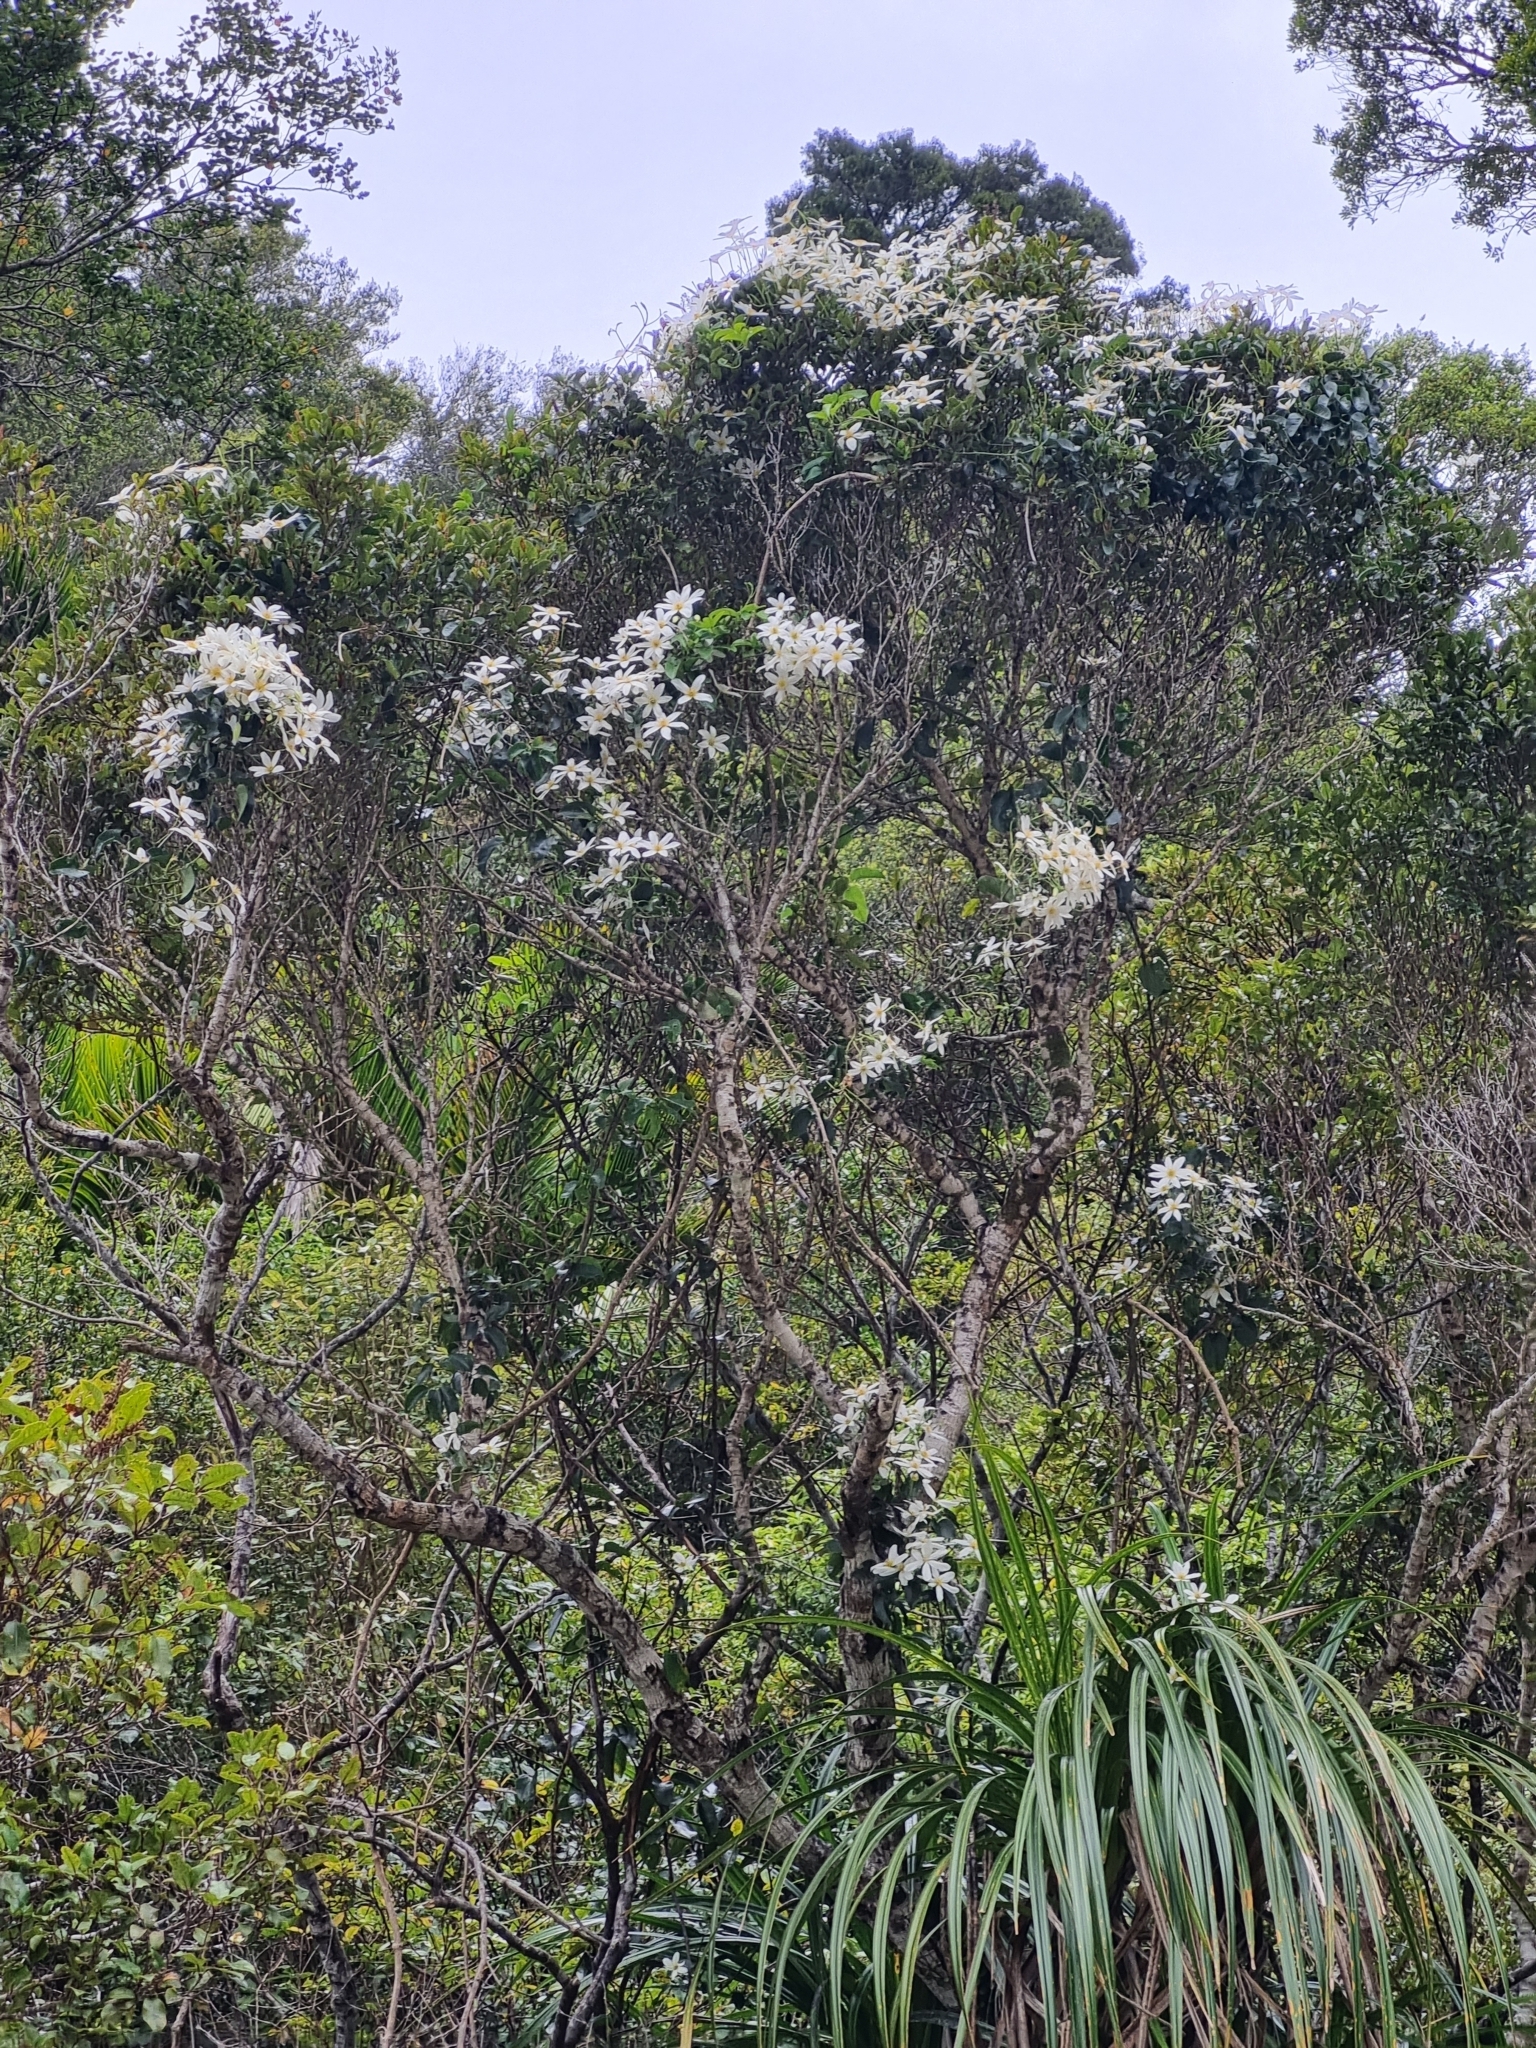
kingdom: Plantae
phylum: Tracheophyta
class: Magnoliopsida
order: Ranunculales
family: Ranunculaceae
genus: Clematis
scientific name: Clematis paniculata
